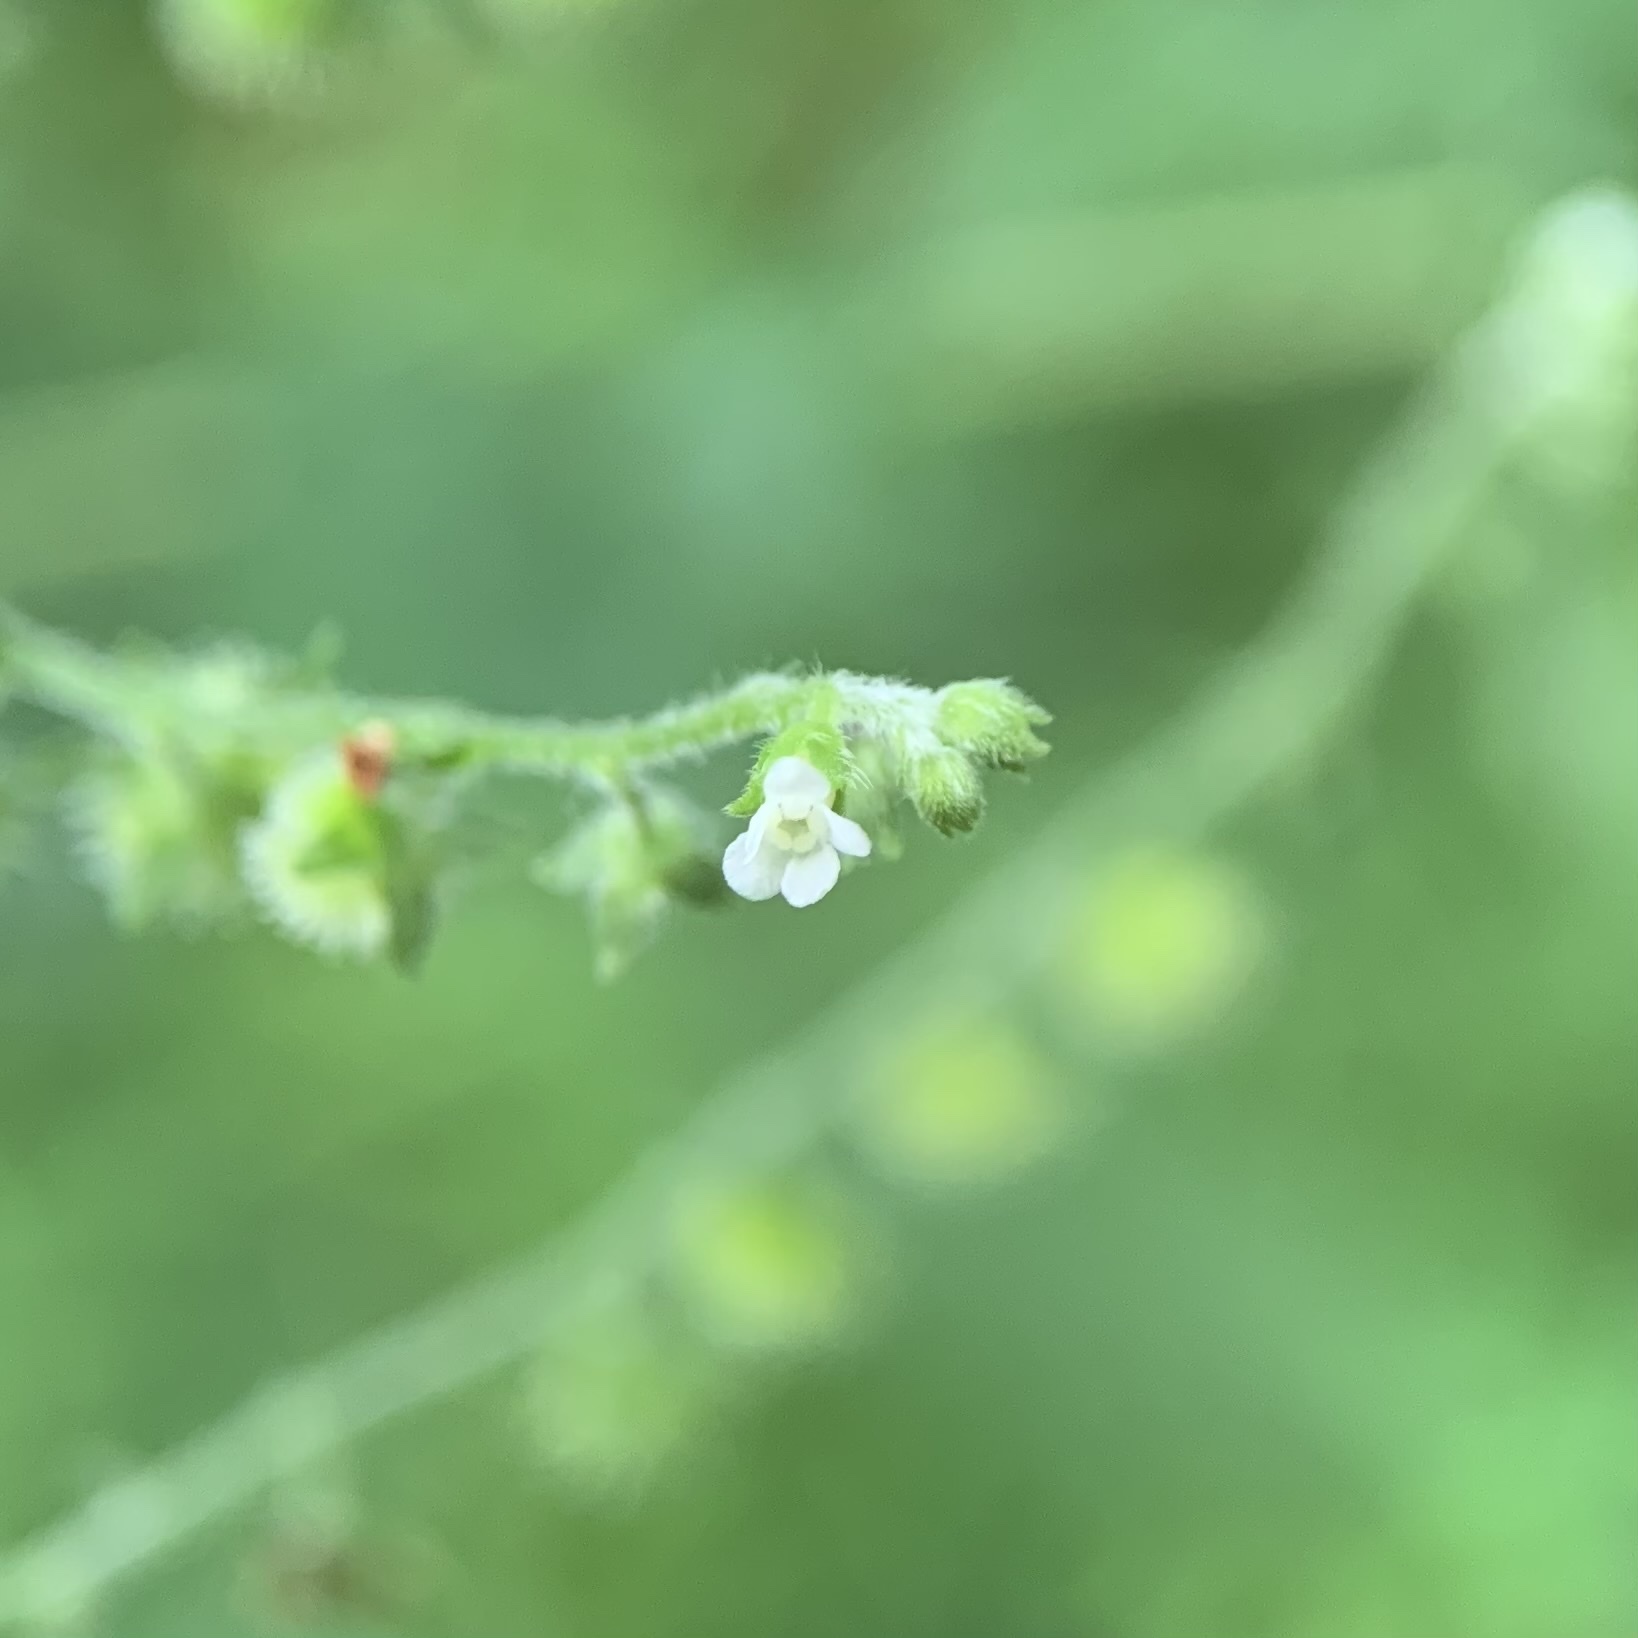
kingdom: Plantae
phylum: Tracheophyta
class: Magnoliopsida
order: Boraginales
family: Boraginaceae
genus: Hackelia
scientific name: Hackelia virginiana
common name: Beggar's-lice
